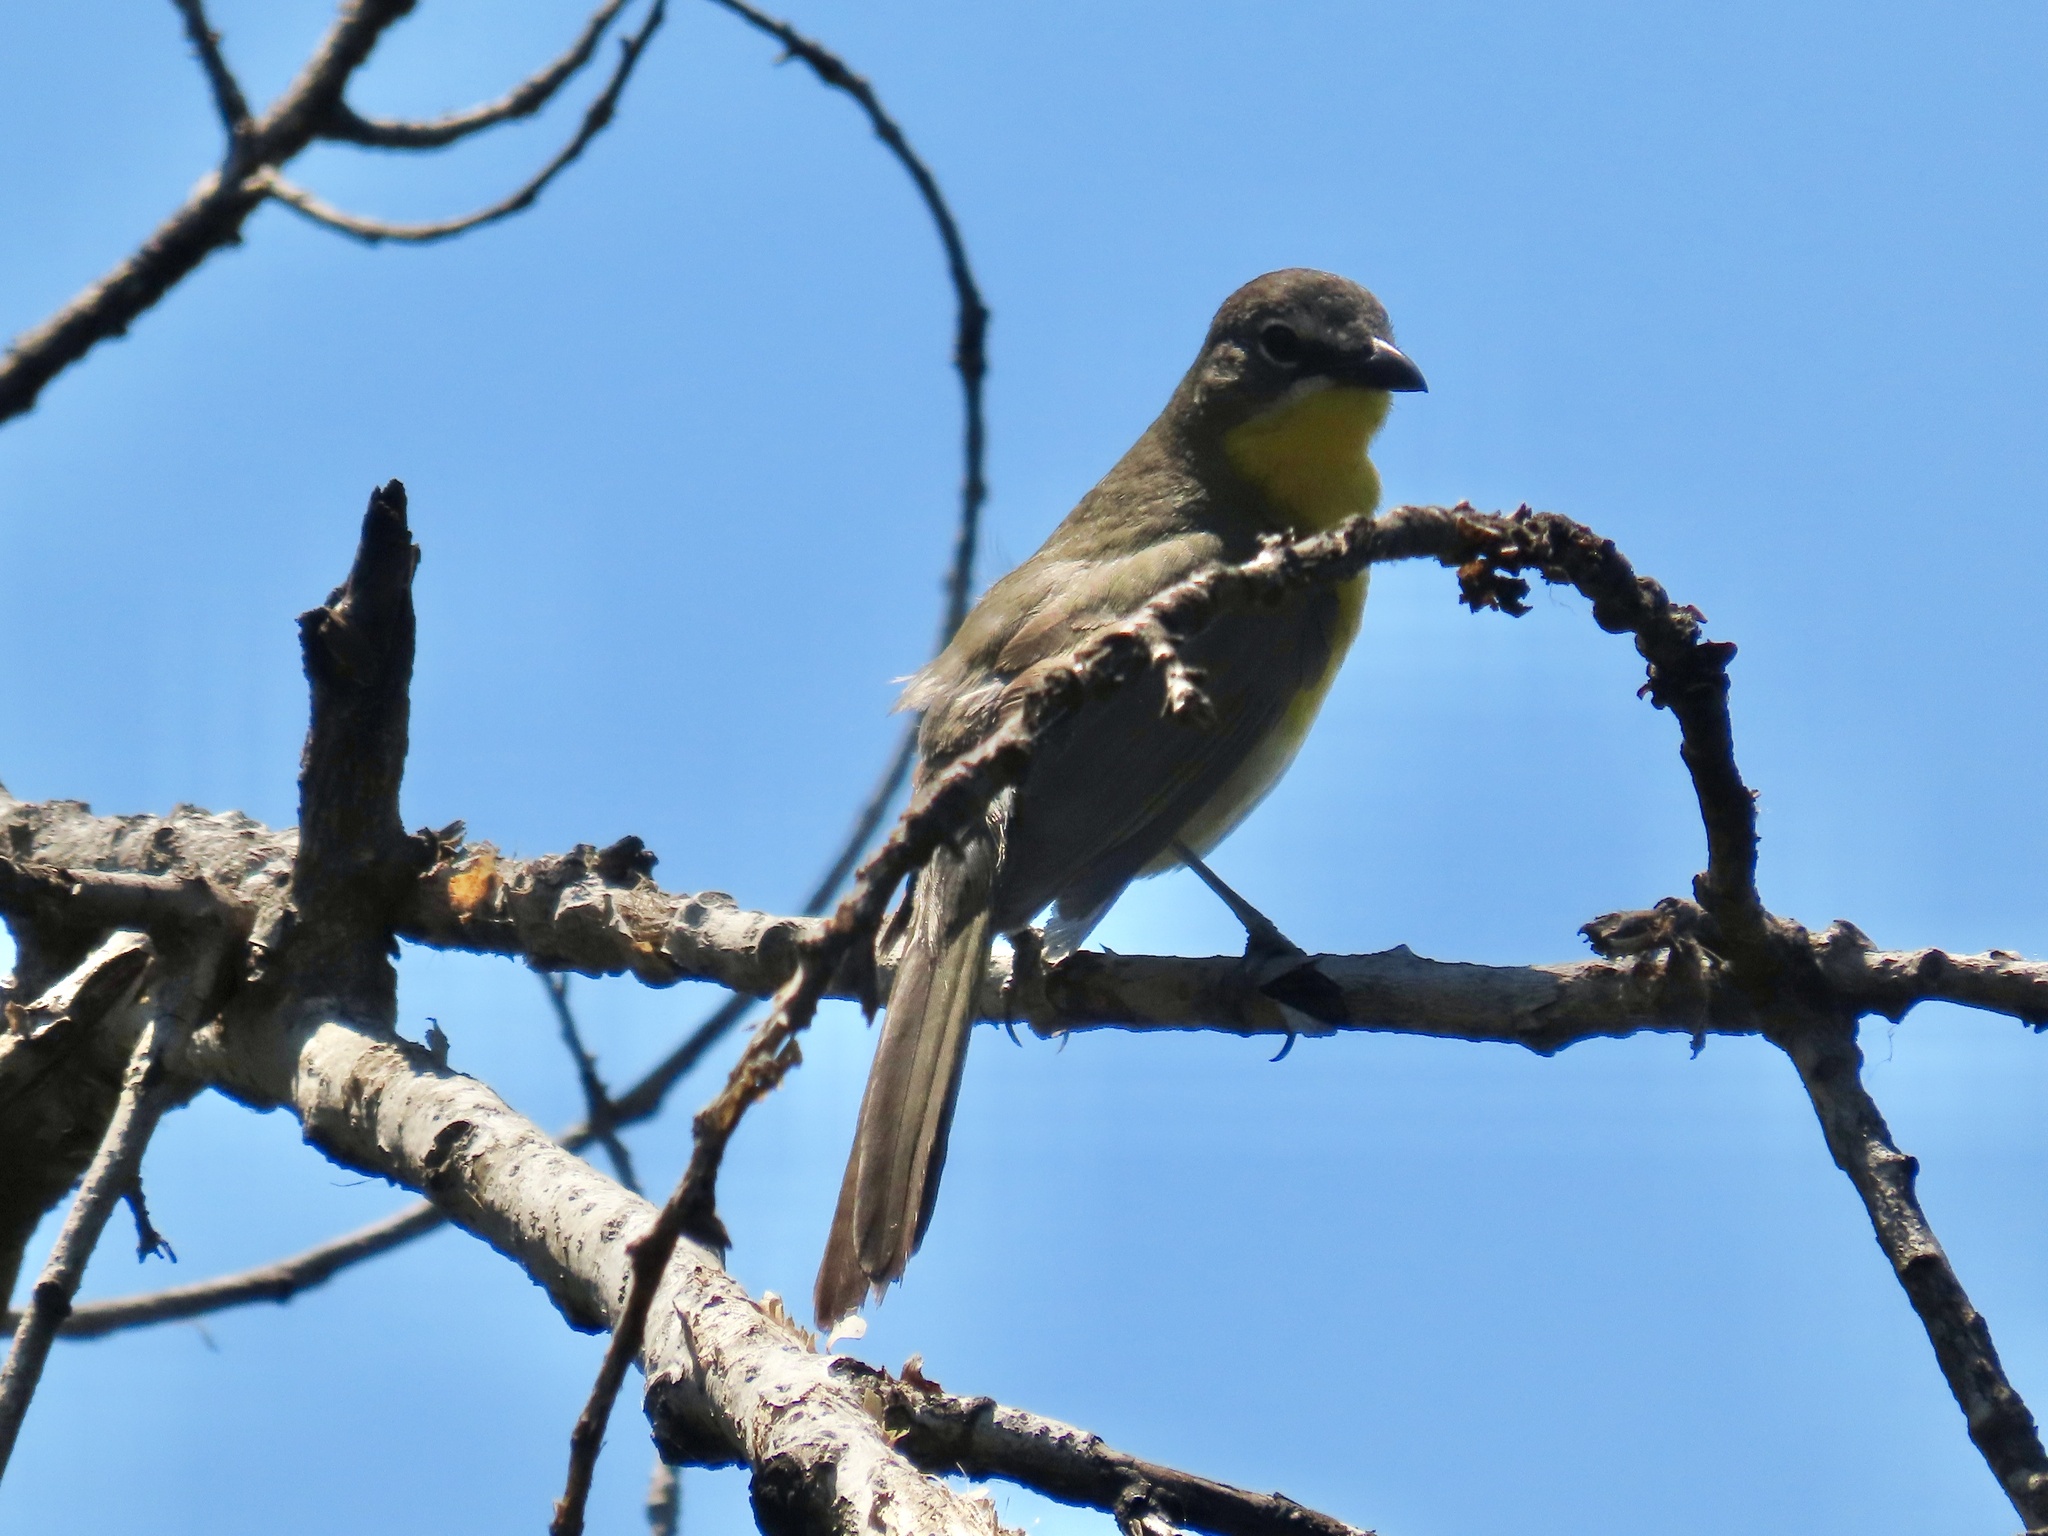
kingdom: Animalia
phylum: Chordata
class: Aves
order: Passeriformes
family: Parulidae
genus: Icteria
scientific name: Icteria virens
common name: Yellow-breasted chat
